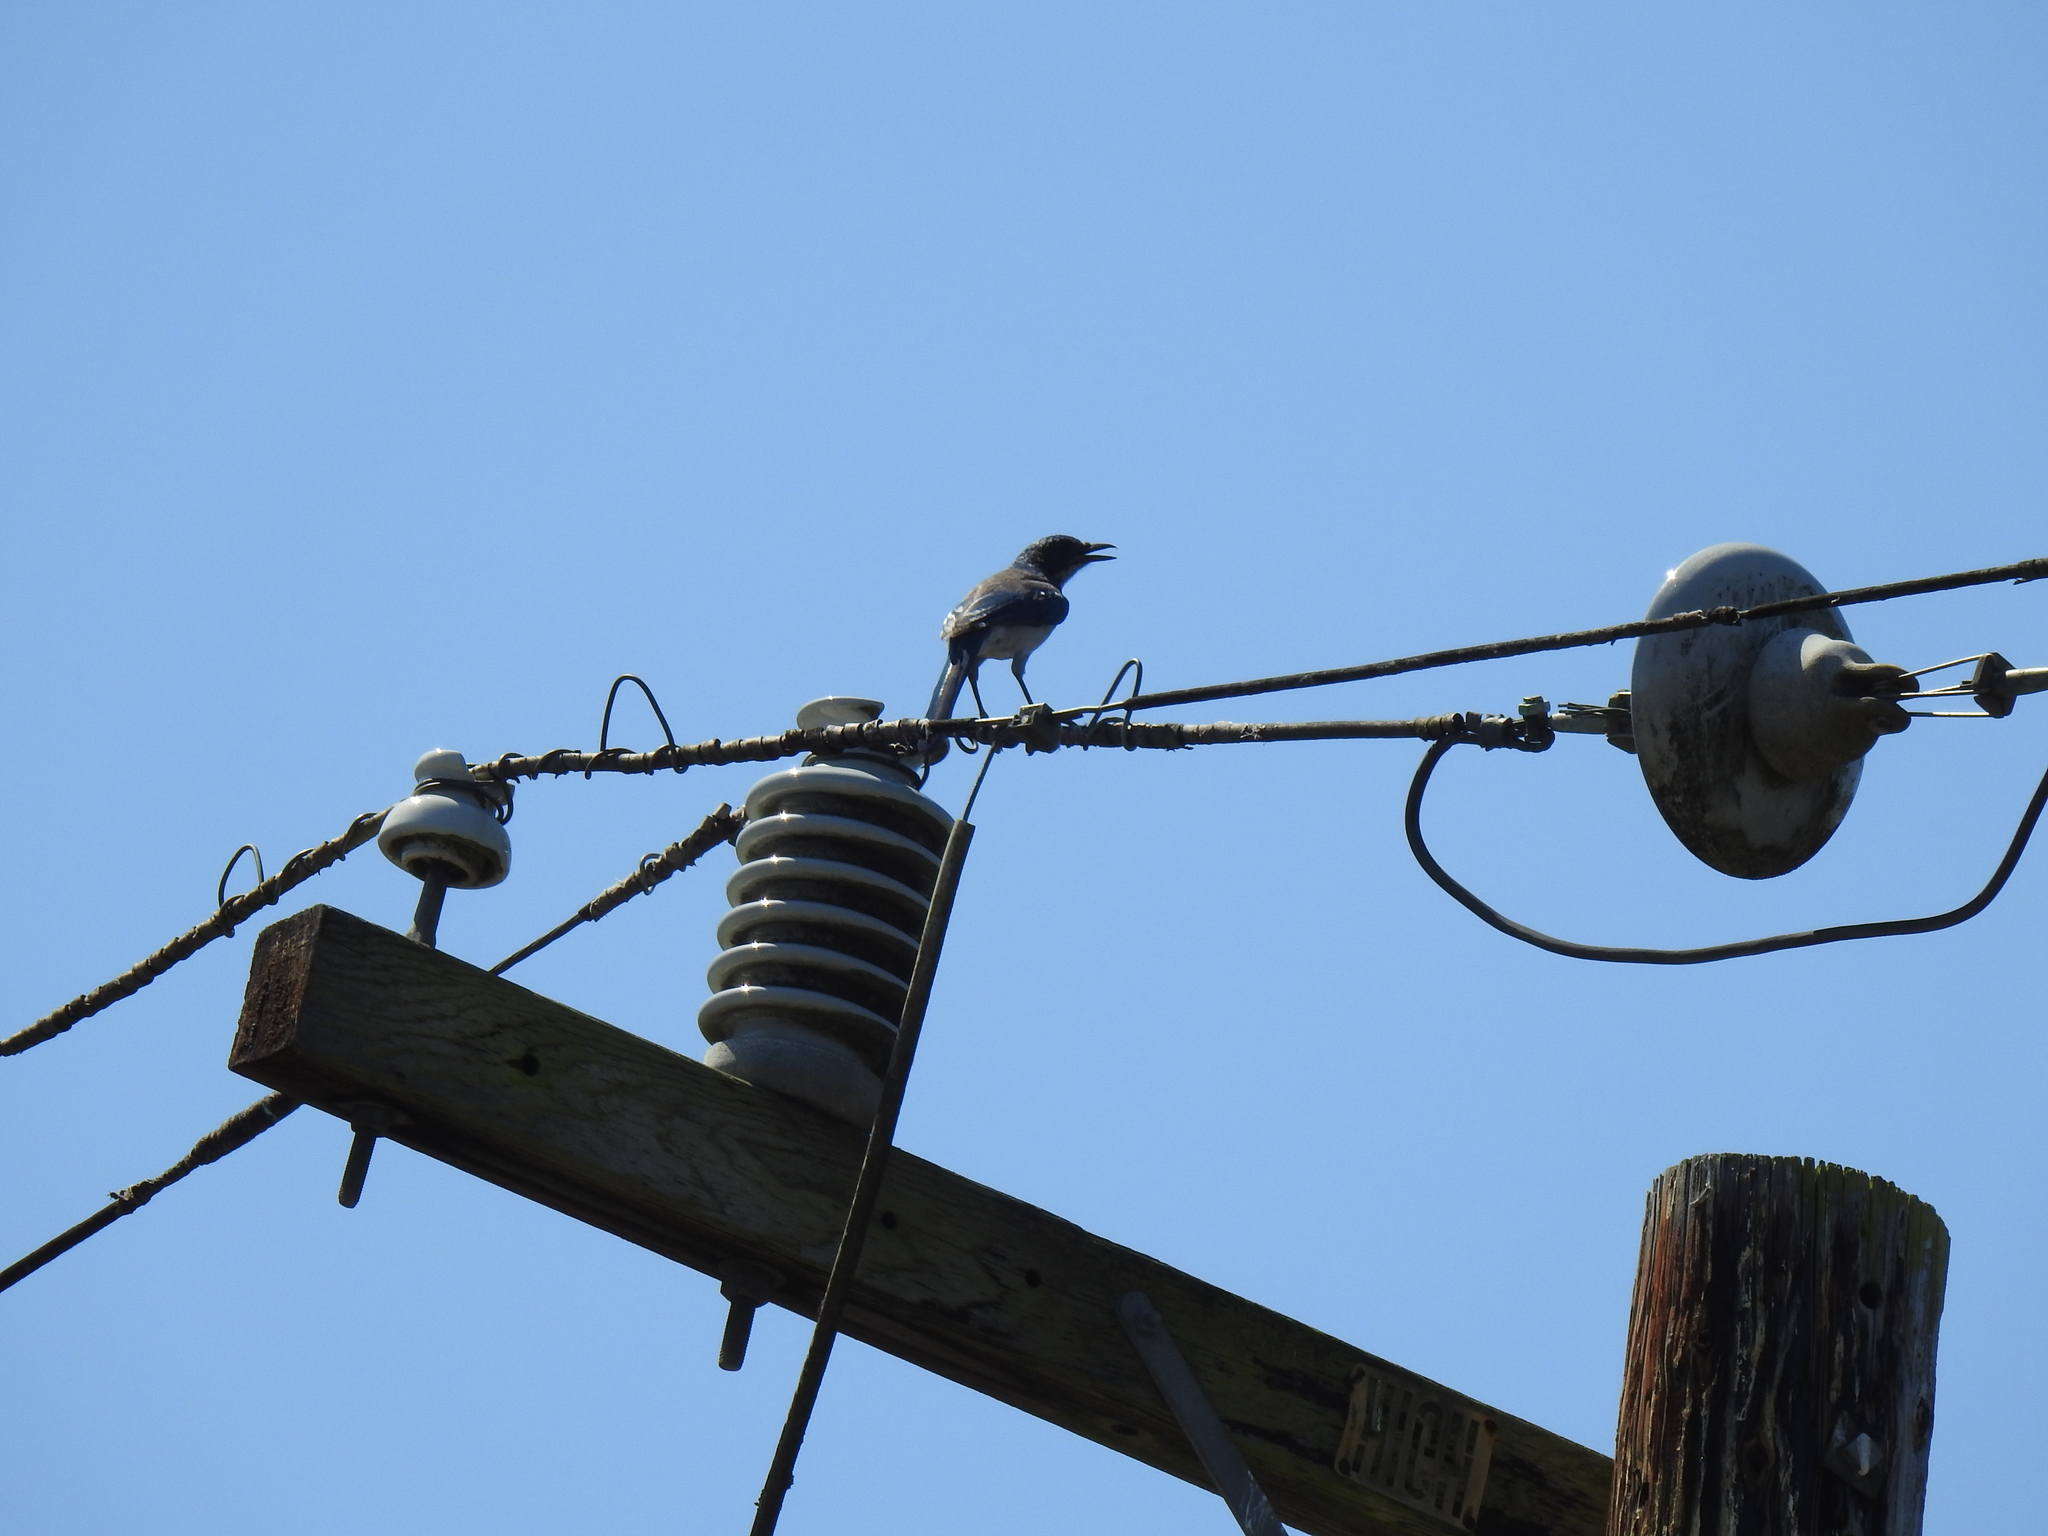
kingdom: Animalia
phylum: Chordata
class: Aves
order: Passeriformes
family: Corvidae
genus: Aphelocoma
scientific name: Aphelocoma californica
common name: California scrub-jay
